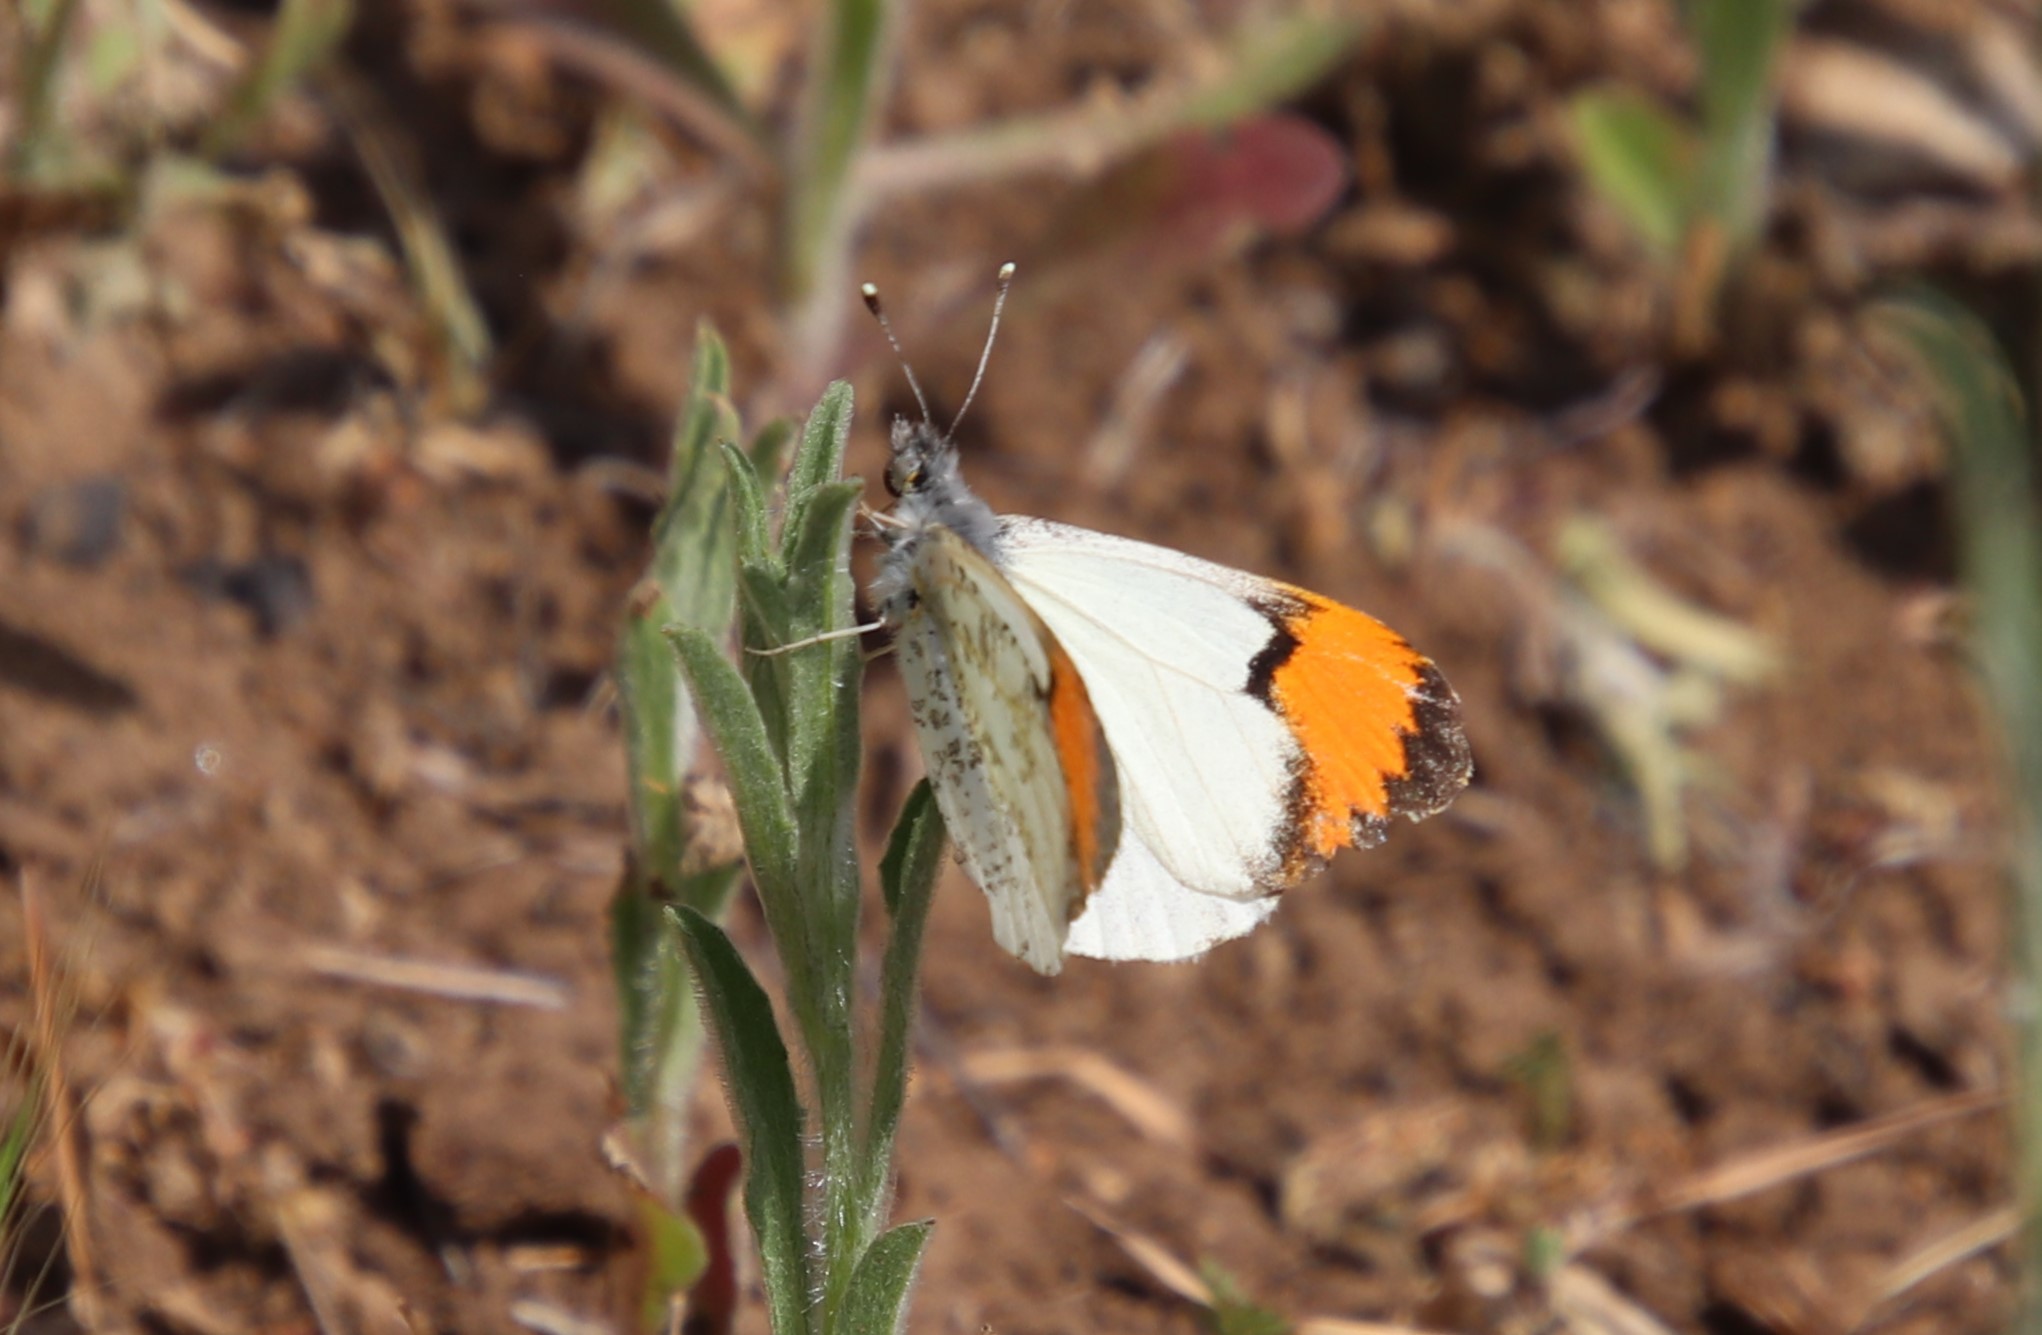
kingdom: Animalia
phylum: Arthropoda
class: Insecta
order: Lepidoptera
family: Pieridae
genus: Anthocharis
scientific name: Anthocharis sara
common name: Sara's orangetip
